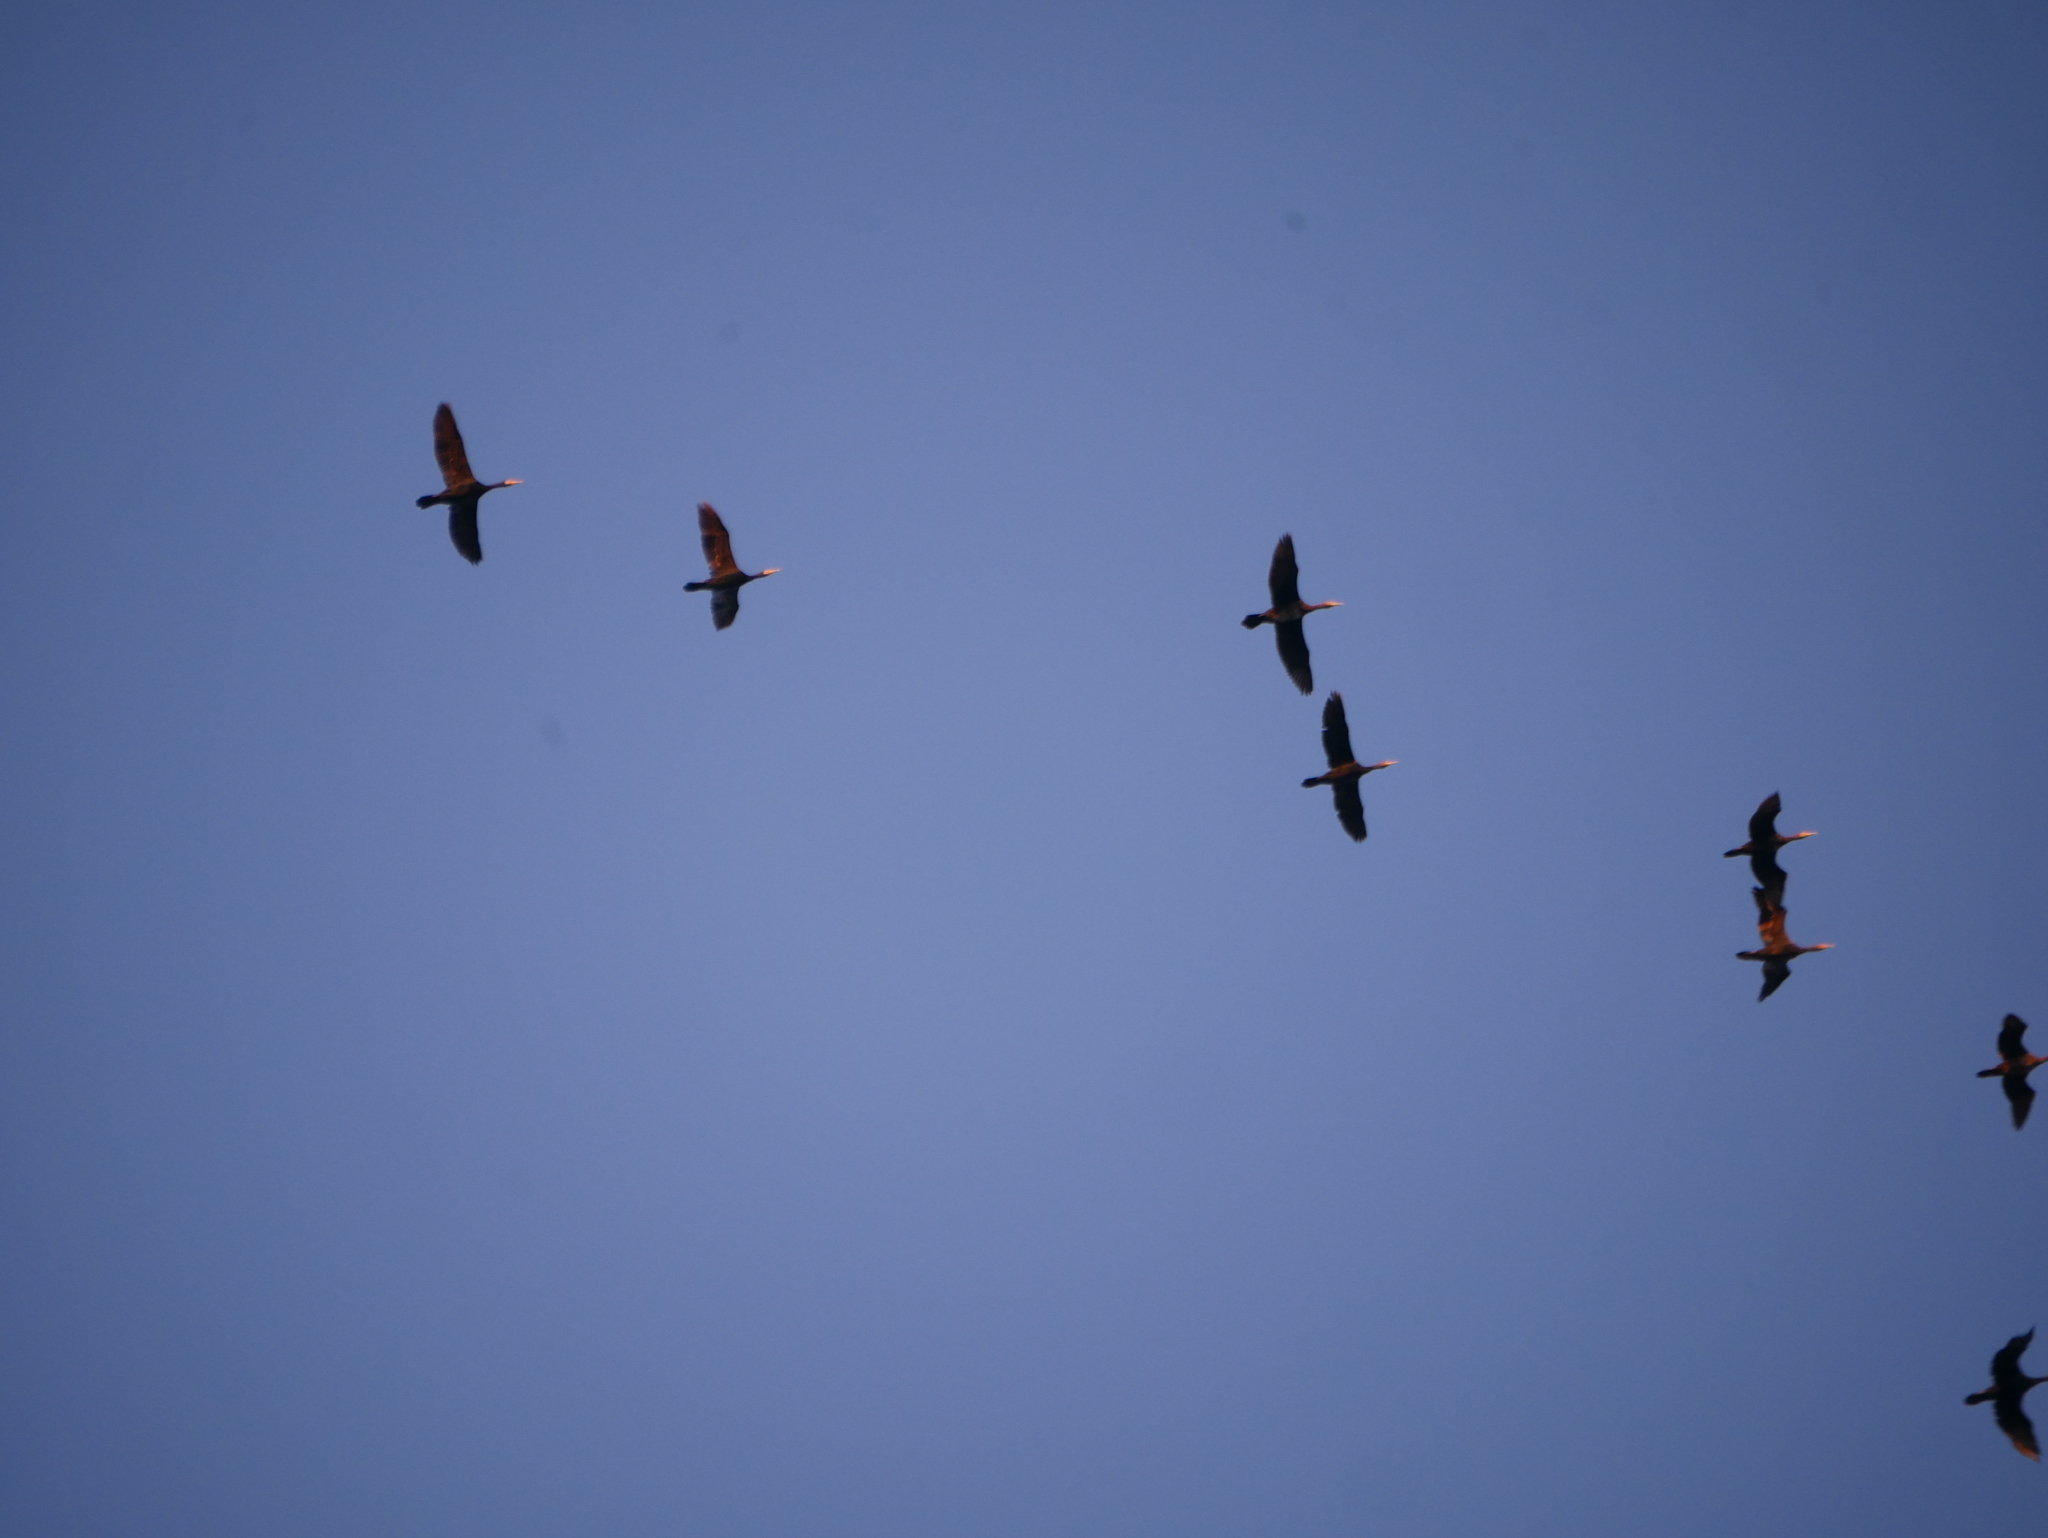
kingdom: Animalia
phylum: Chordata
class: Aves
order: Suliformes
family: Phalacrocoracidae
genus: Phalacrocorax
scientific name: Phalacrocorax carbo
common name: Great cormorant
